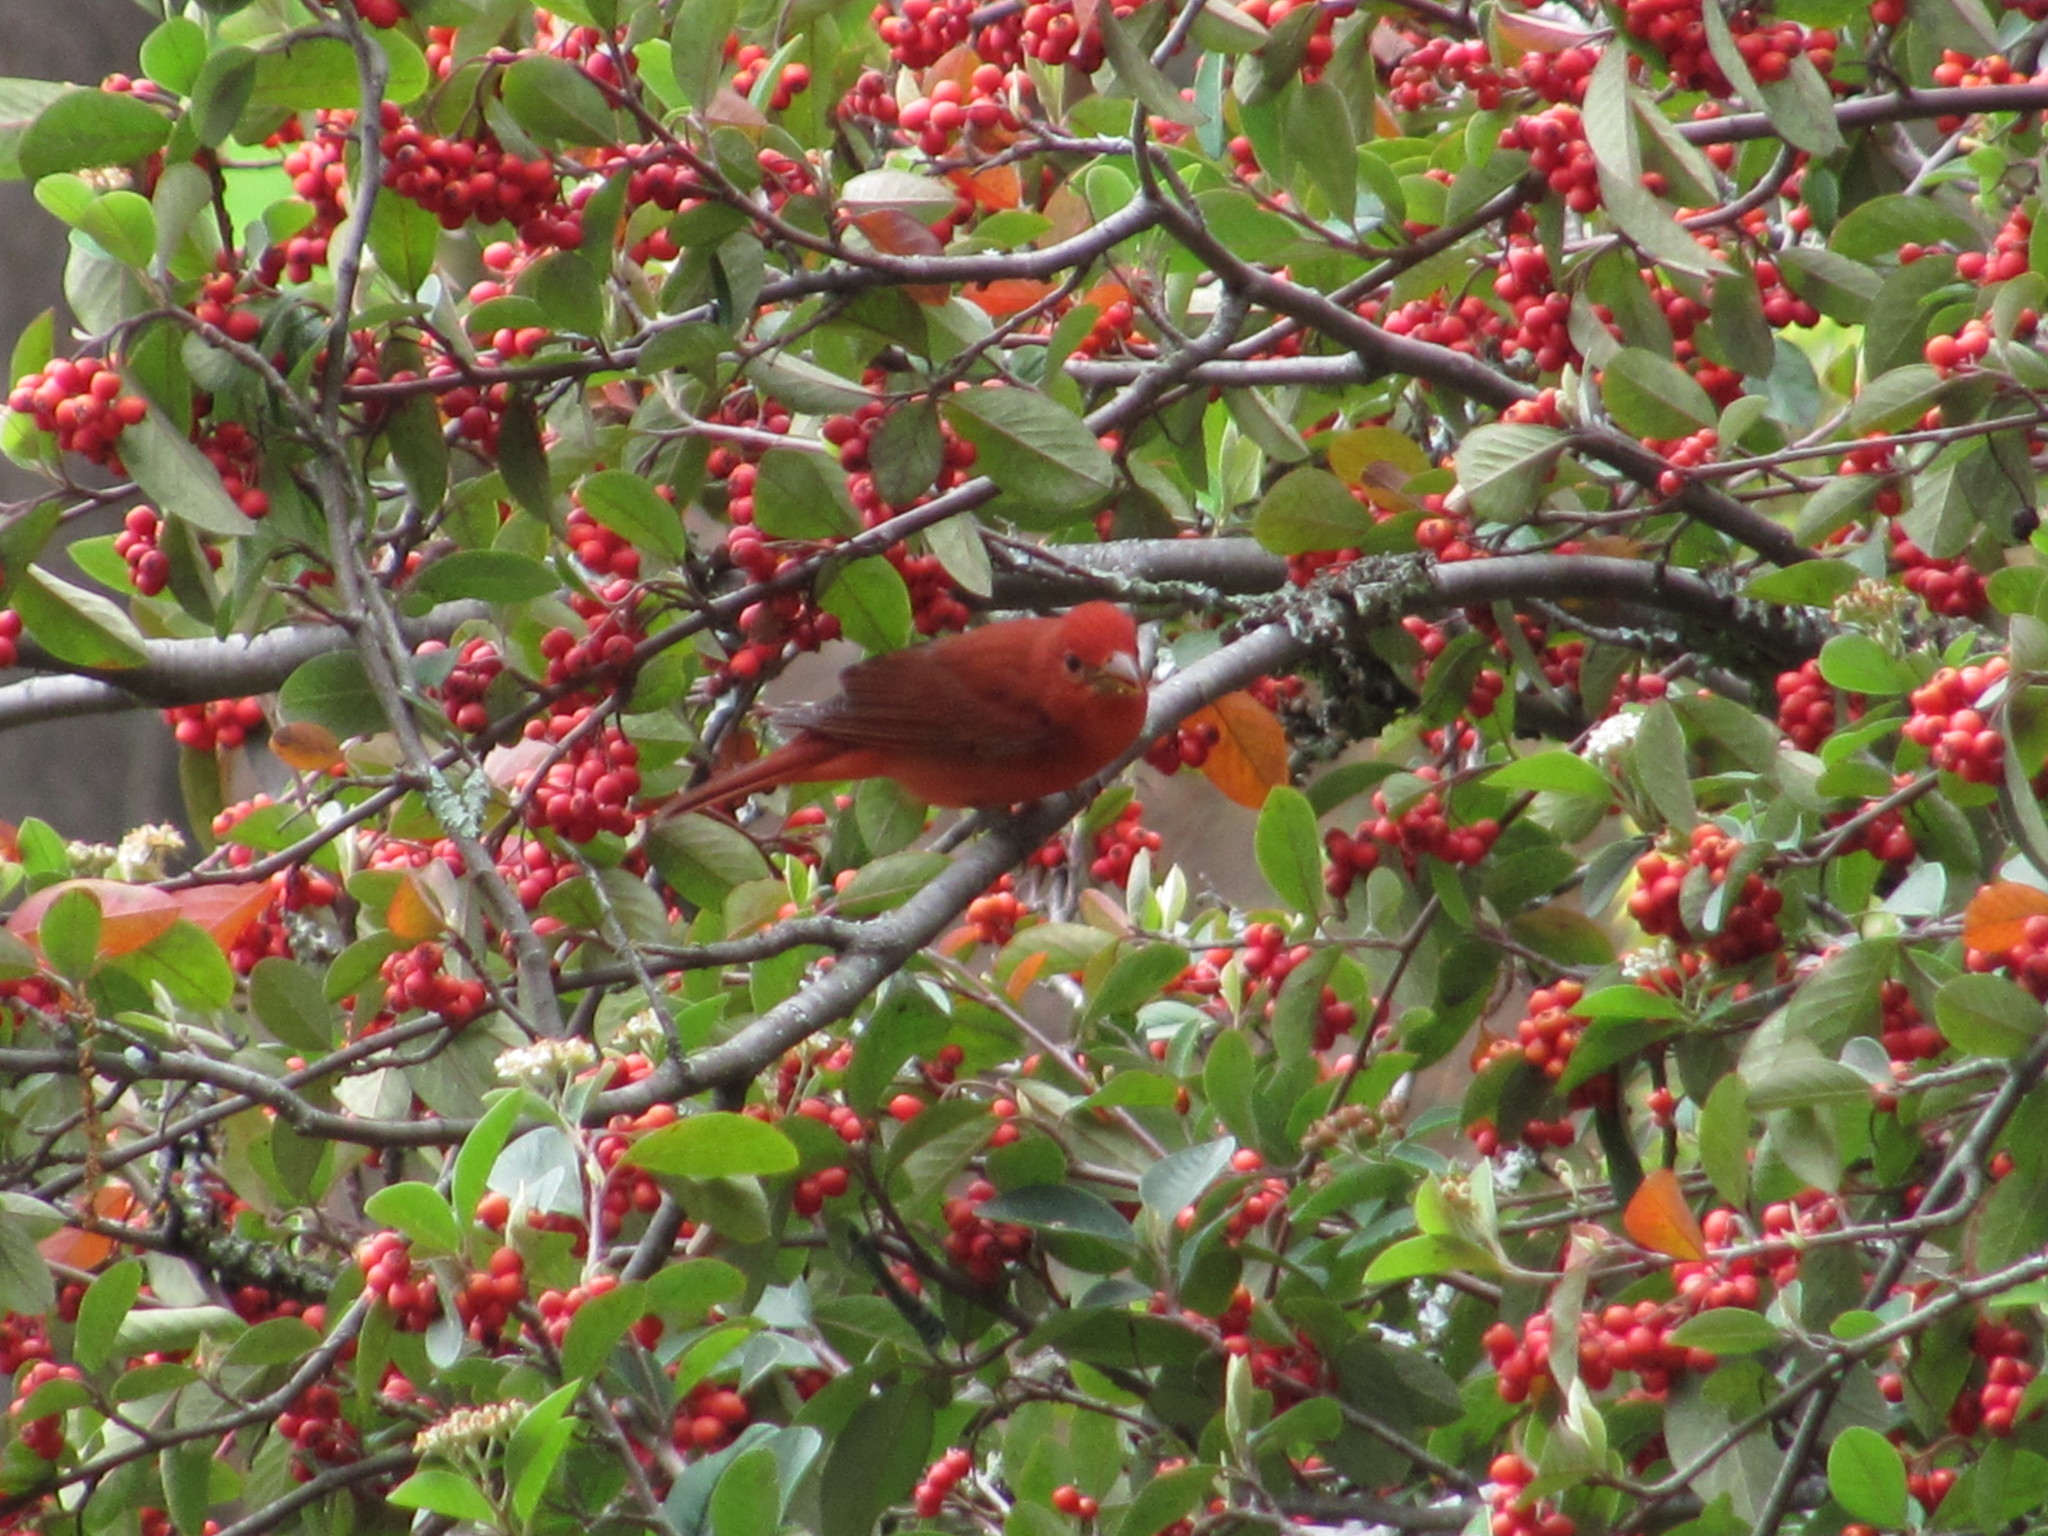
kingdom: Animalia
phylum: Chordata
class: Aves
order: Passeriformes
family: Cardinalidae
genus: Piranga
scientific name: Piranga rubra
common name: Summer tanager
